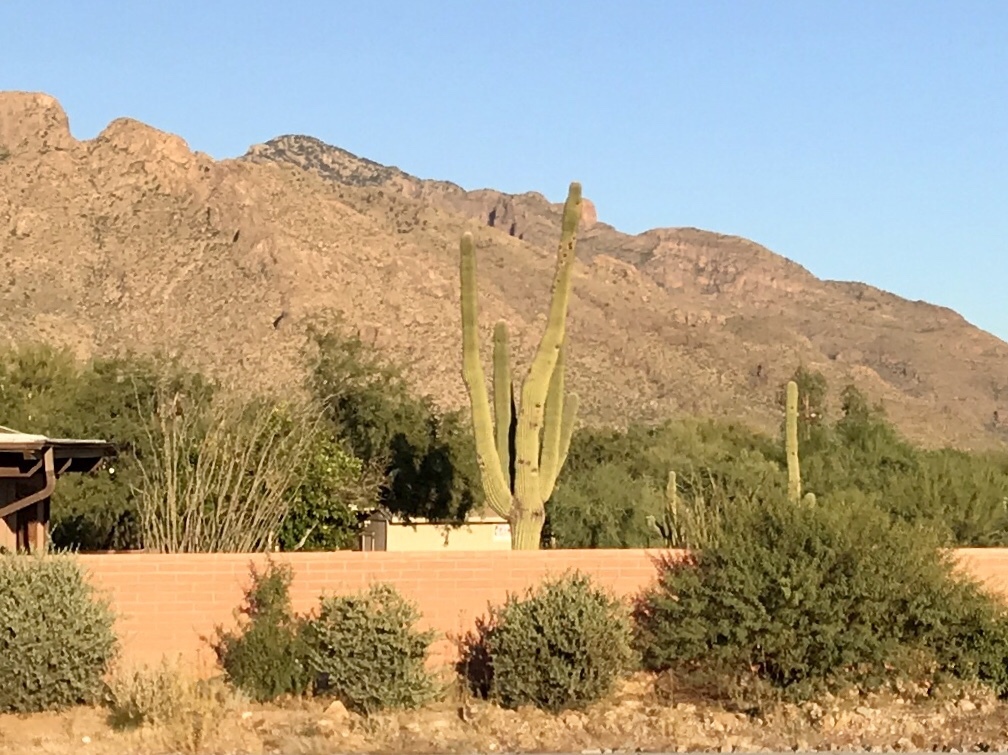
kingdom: Plantae
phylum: Tracheophyta
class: Magnoliopsida
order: Caryophyllales
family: Cactaceae
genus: Carnegiea
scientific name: Carnegiea gigantea
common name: Saguaro
